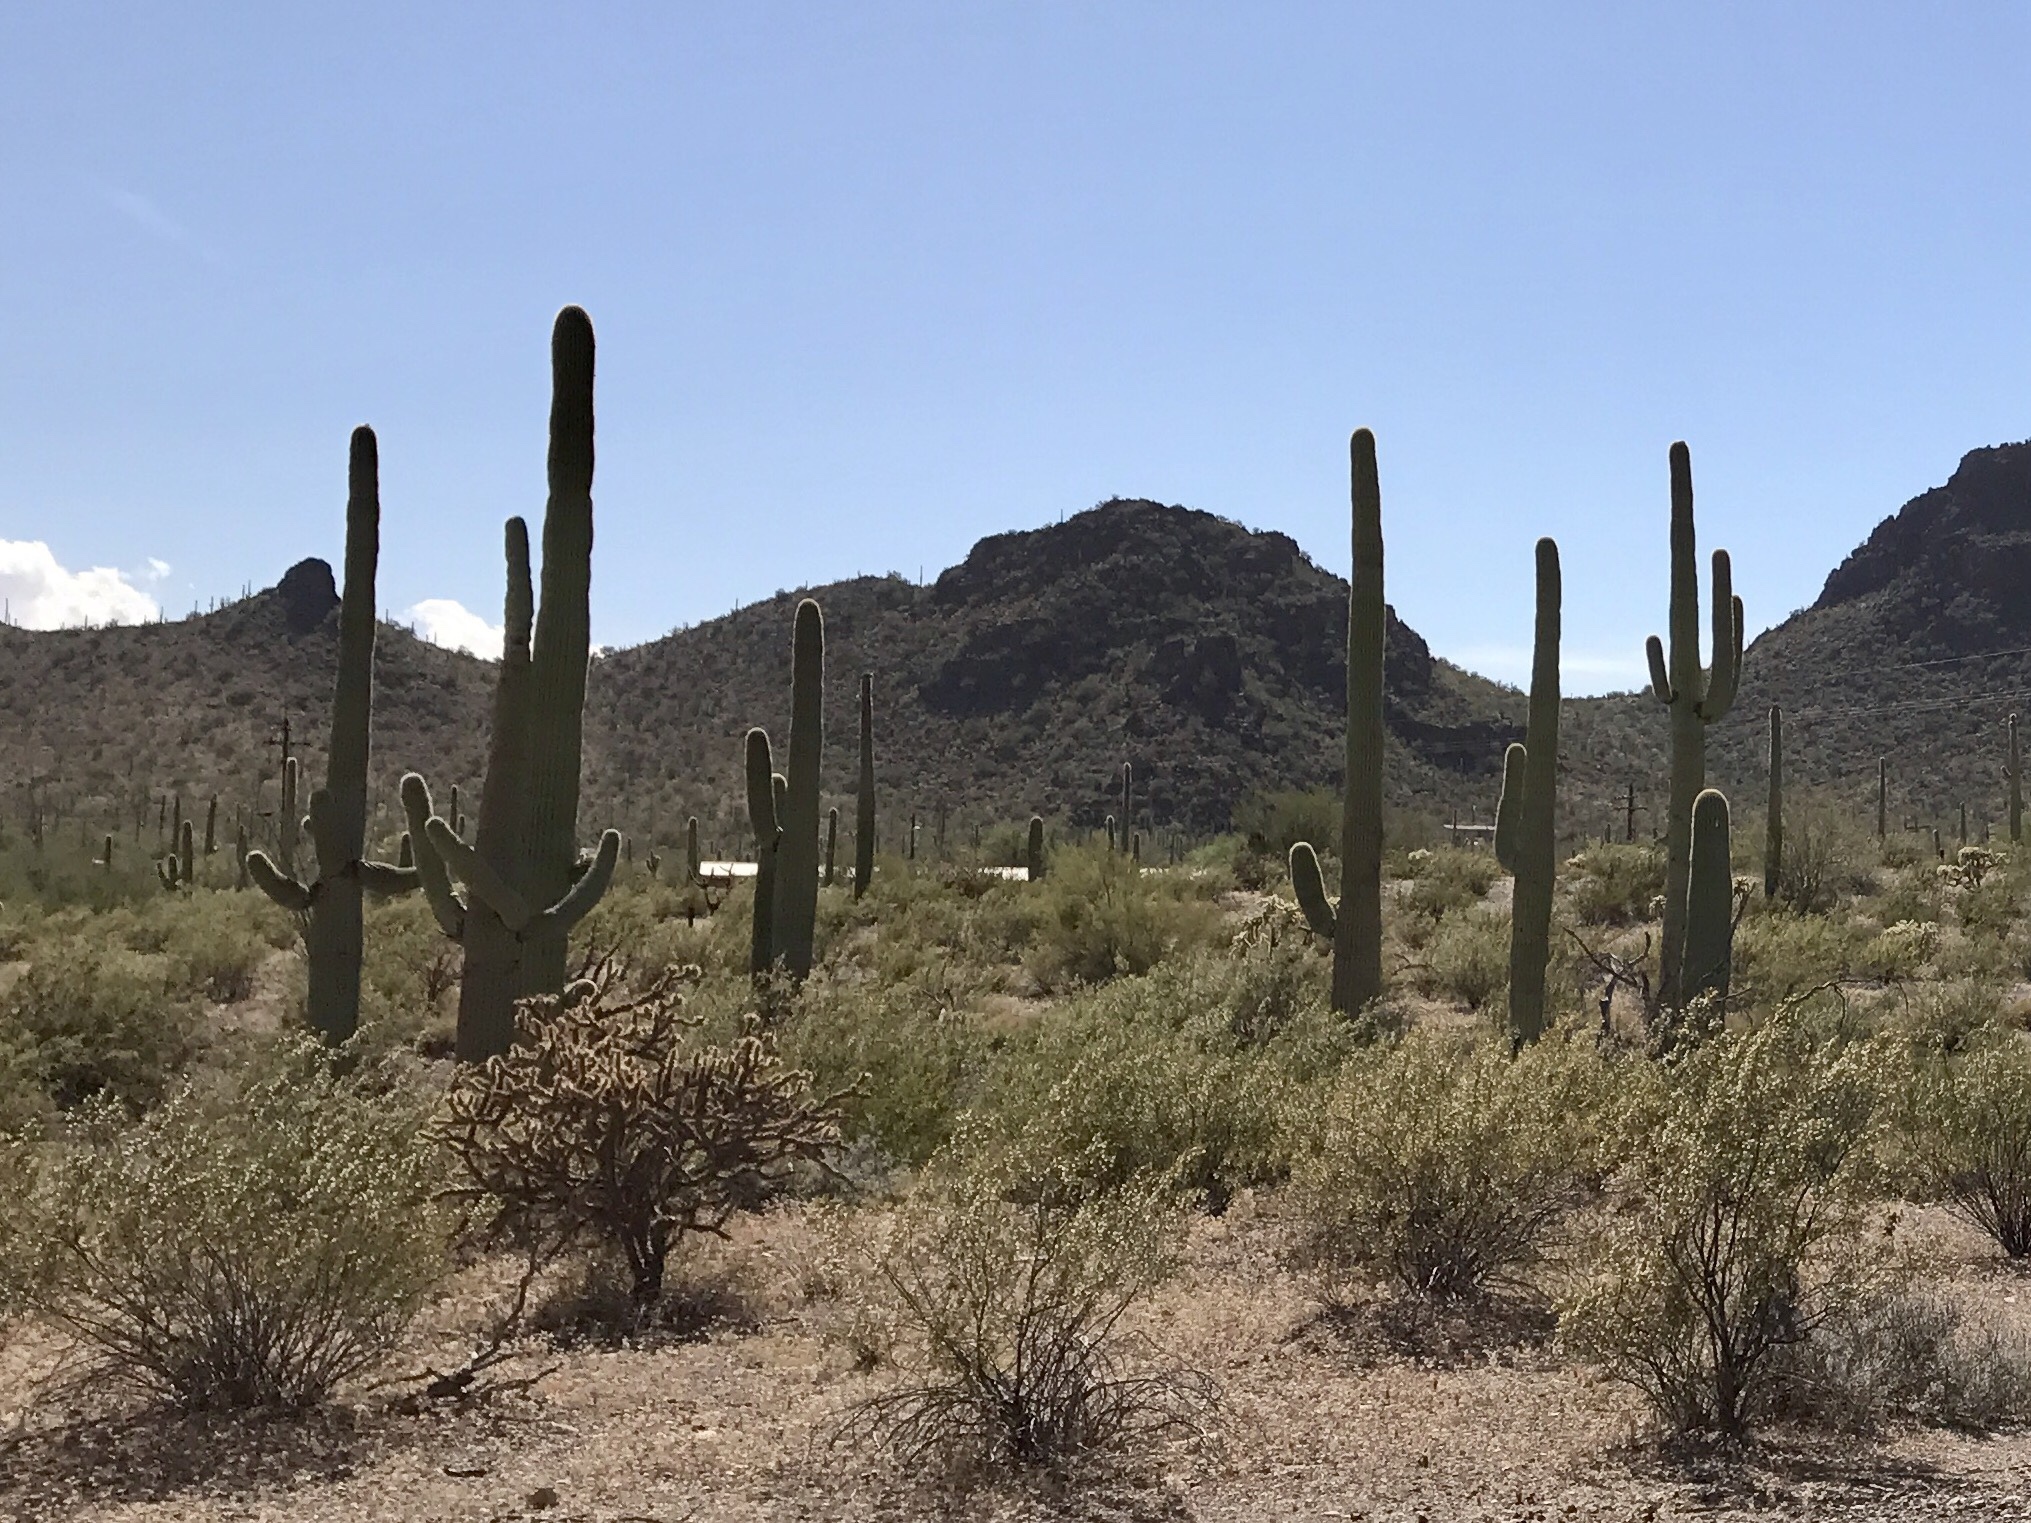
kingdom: Plantae
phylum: Tracheophyta
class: Magnoliopsida
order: Caryophyllales
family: Cactaceae
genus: Carnegiea
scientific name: Carnegiea gigantea
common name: Saguaro
